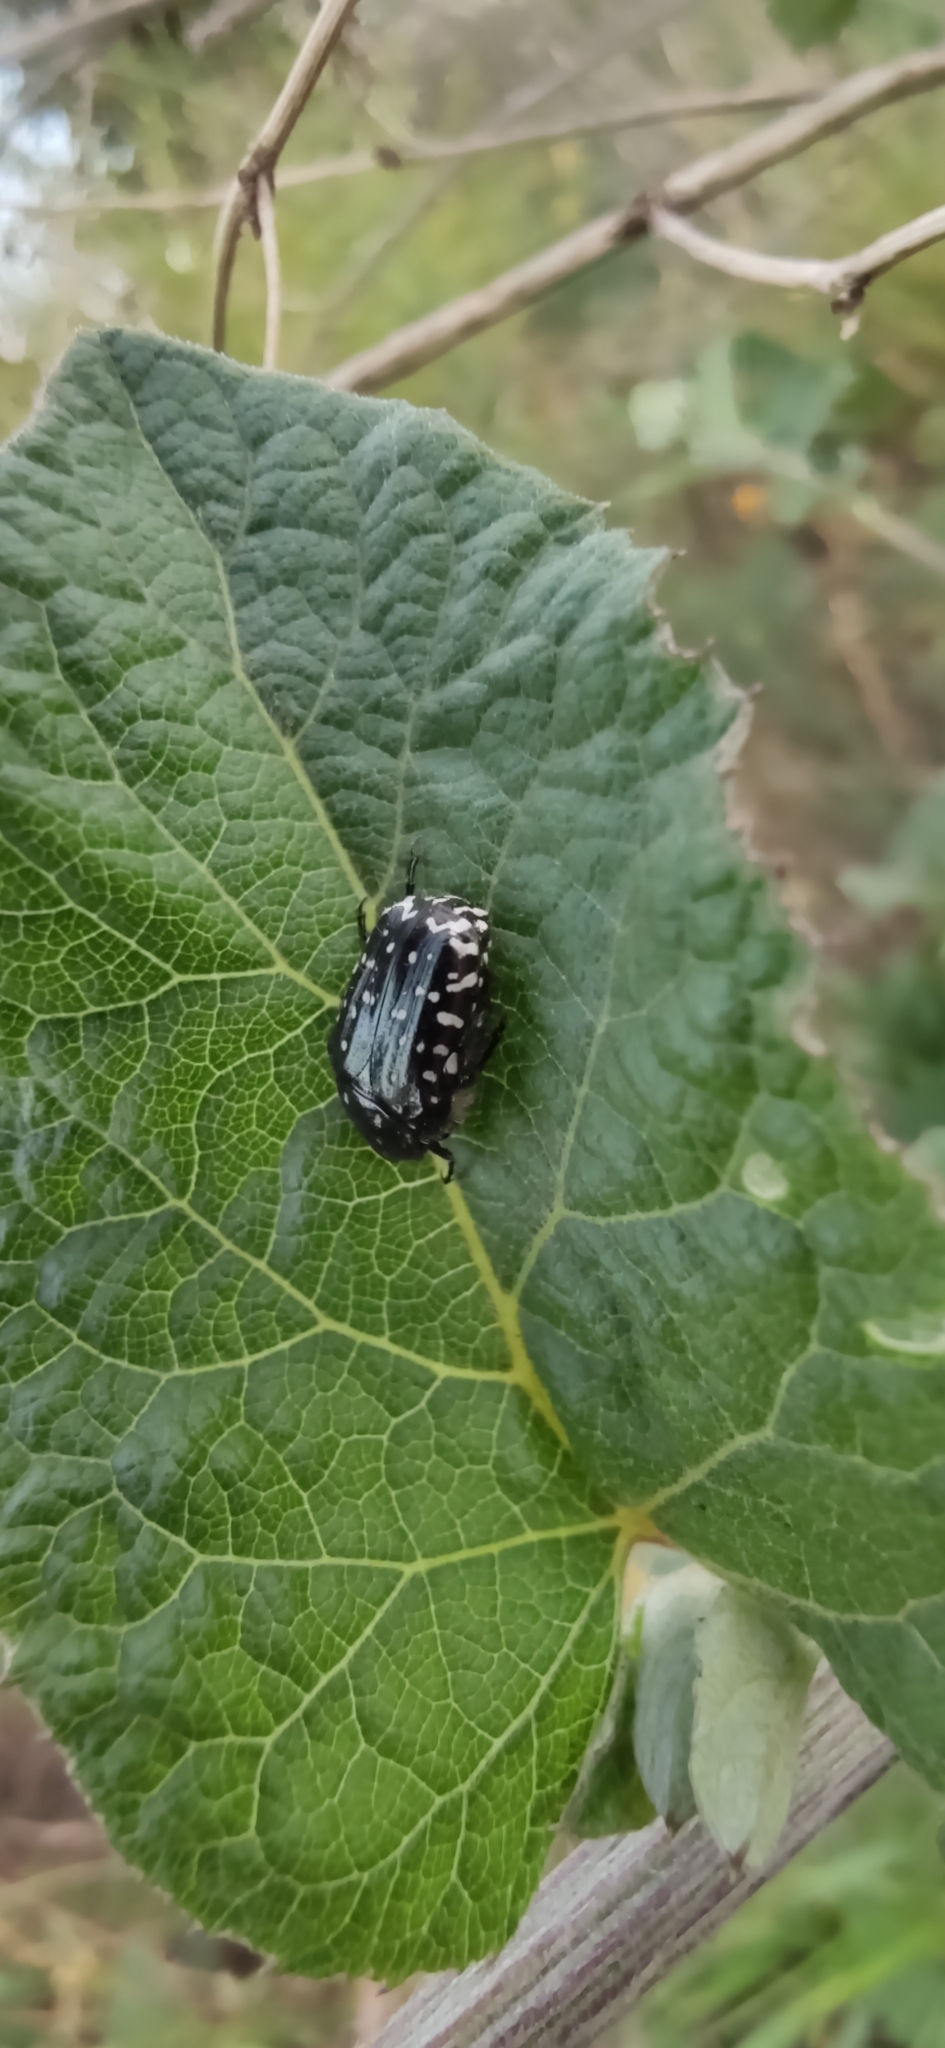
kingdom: Animalia
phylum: Arthropoda
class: Insecta
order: Coleoptera
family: Scarabaeidae
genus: Oxythyrea
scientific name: Oxythyrea funesta
